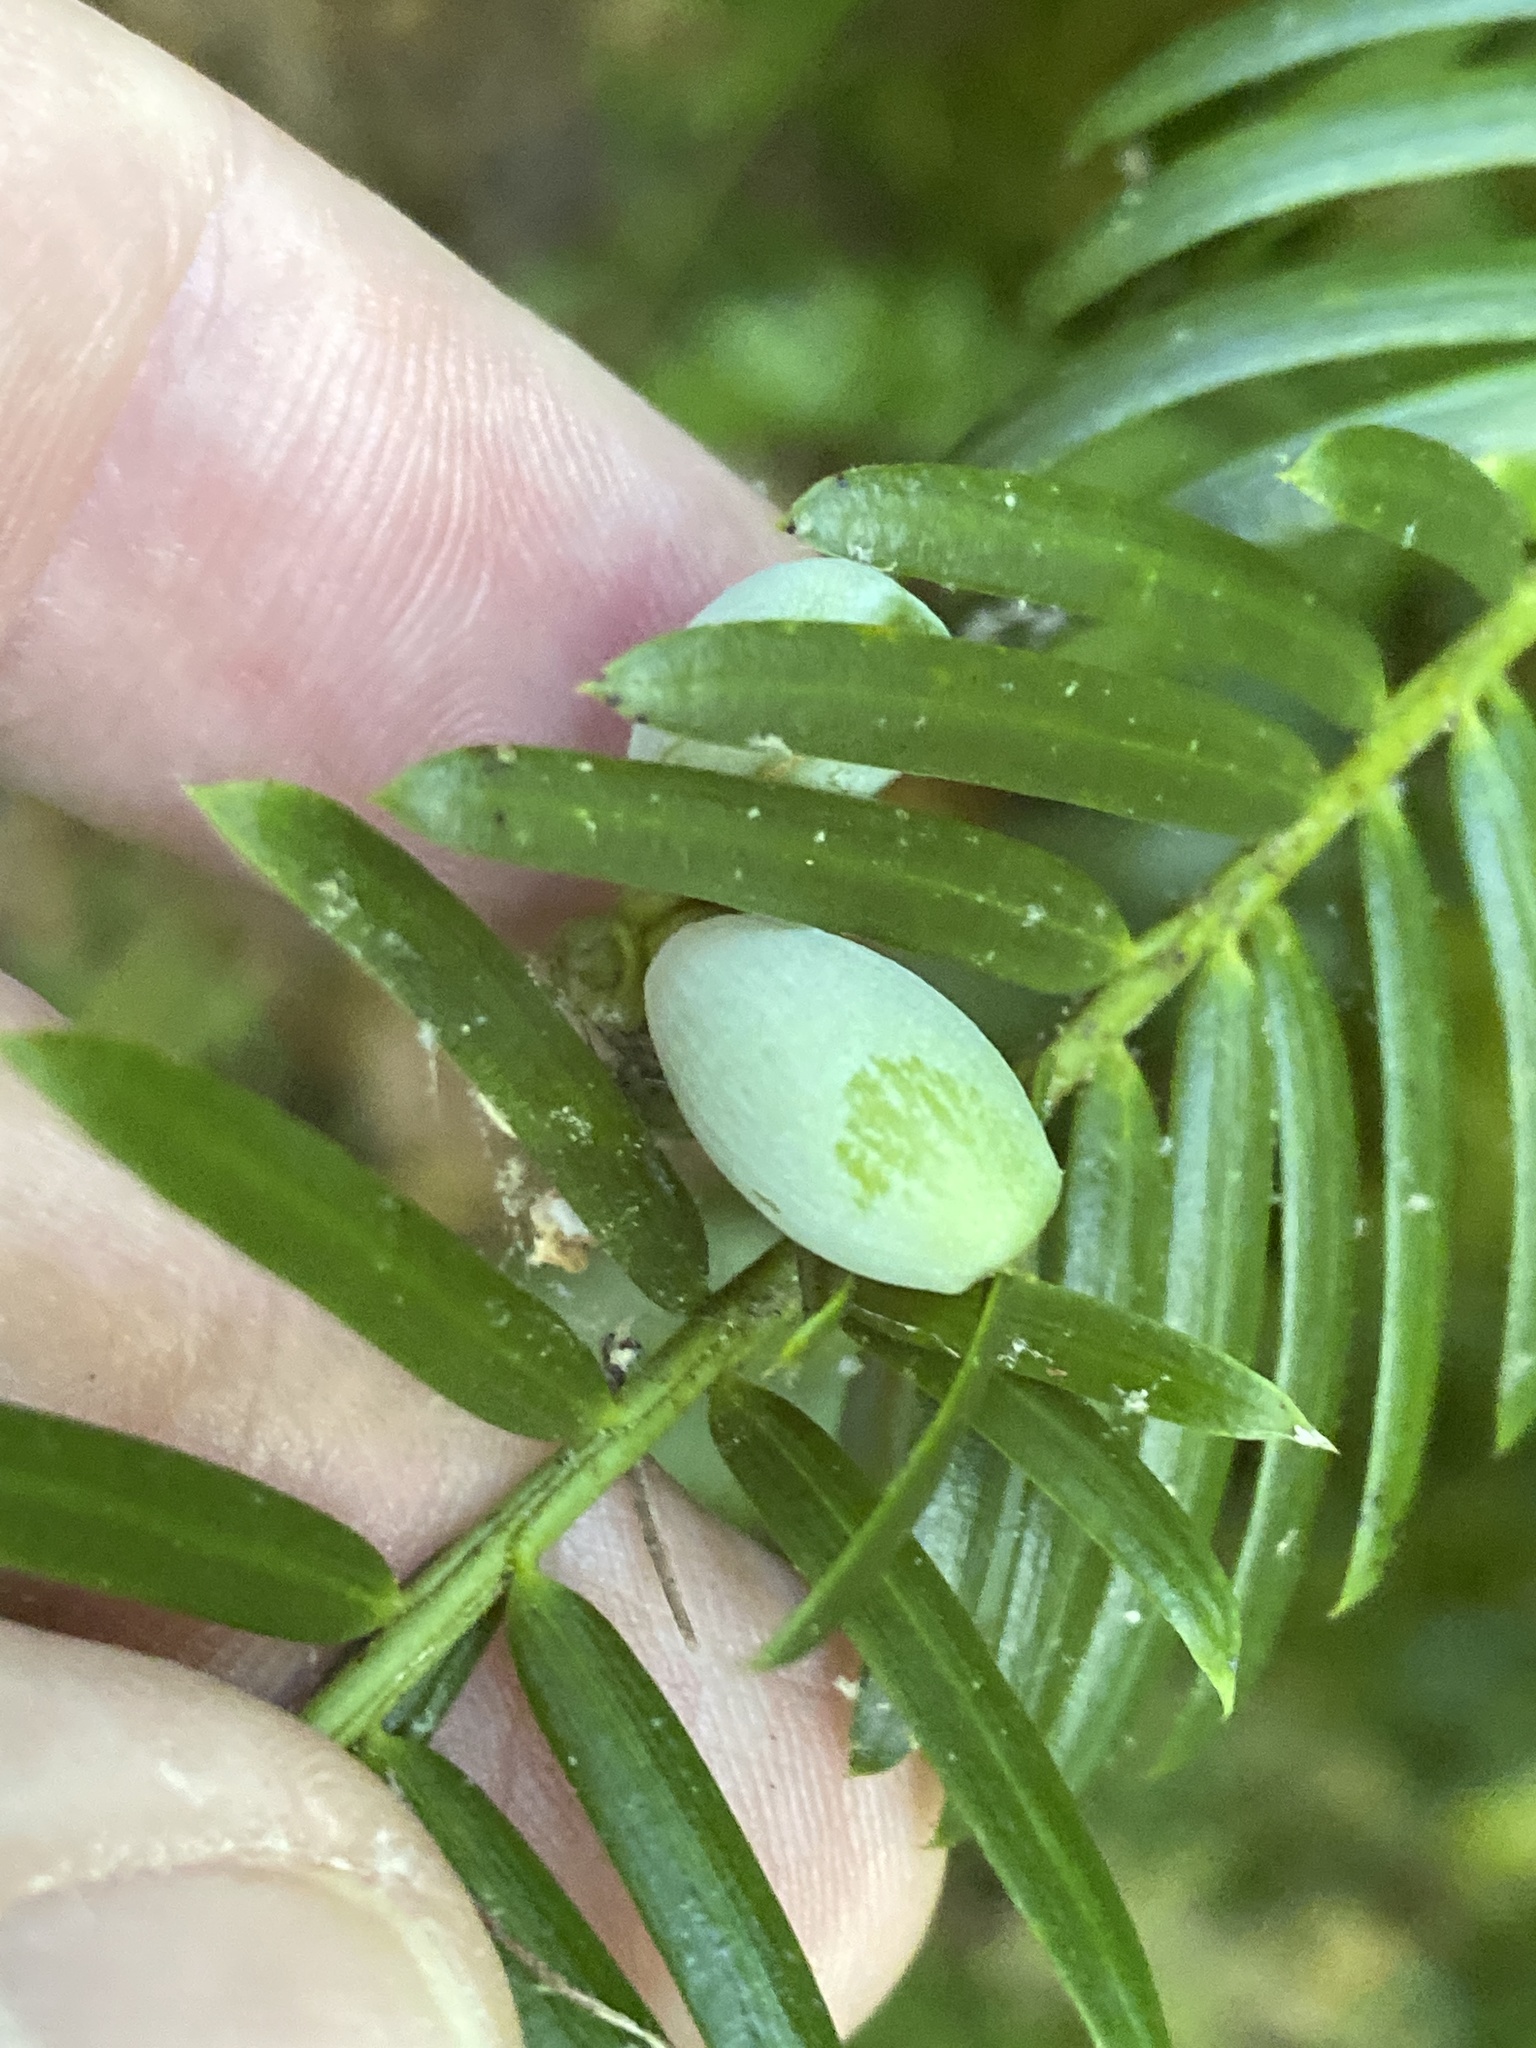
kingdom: Plantae
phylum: Tracheophyta
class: Pinopsida
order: Pinales
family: Cephalotaxaceae
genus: Cephalotaxus
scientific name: Cephalotaxus harringtonia
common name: Japanese plum-yew
